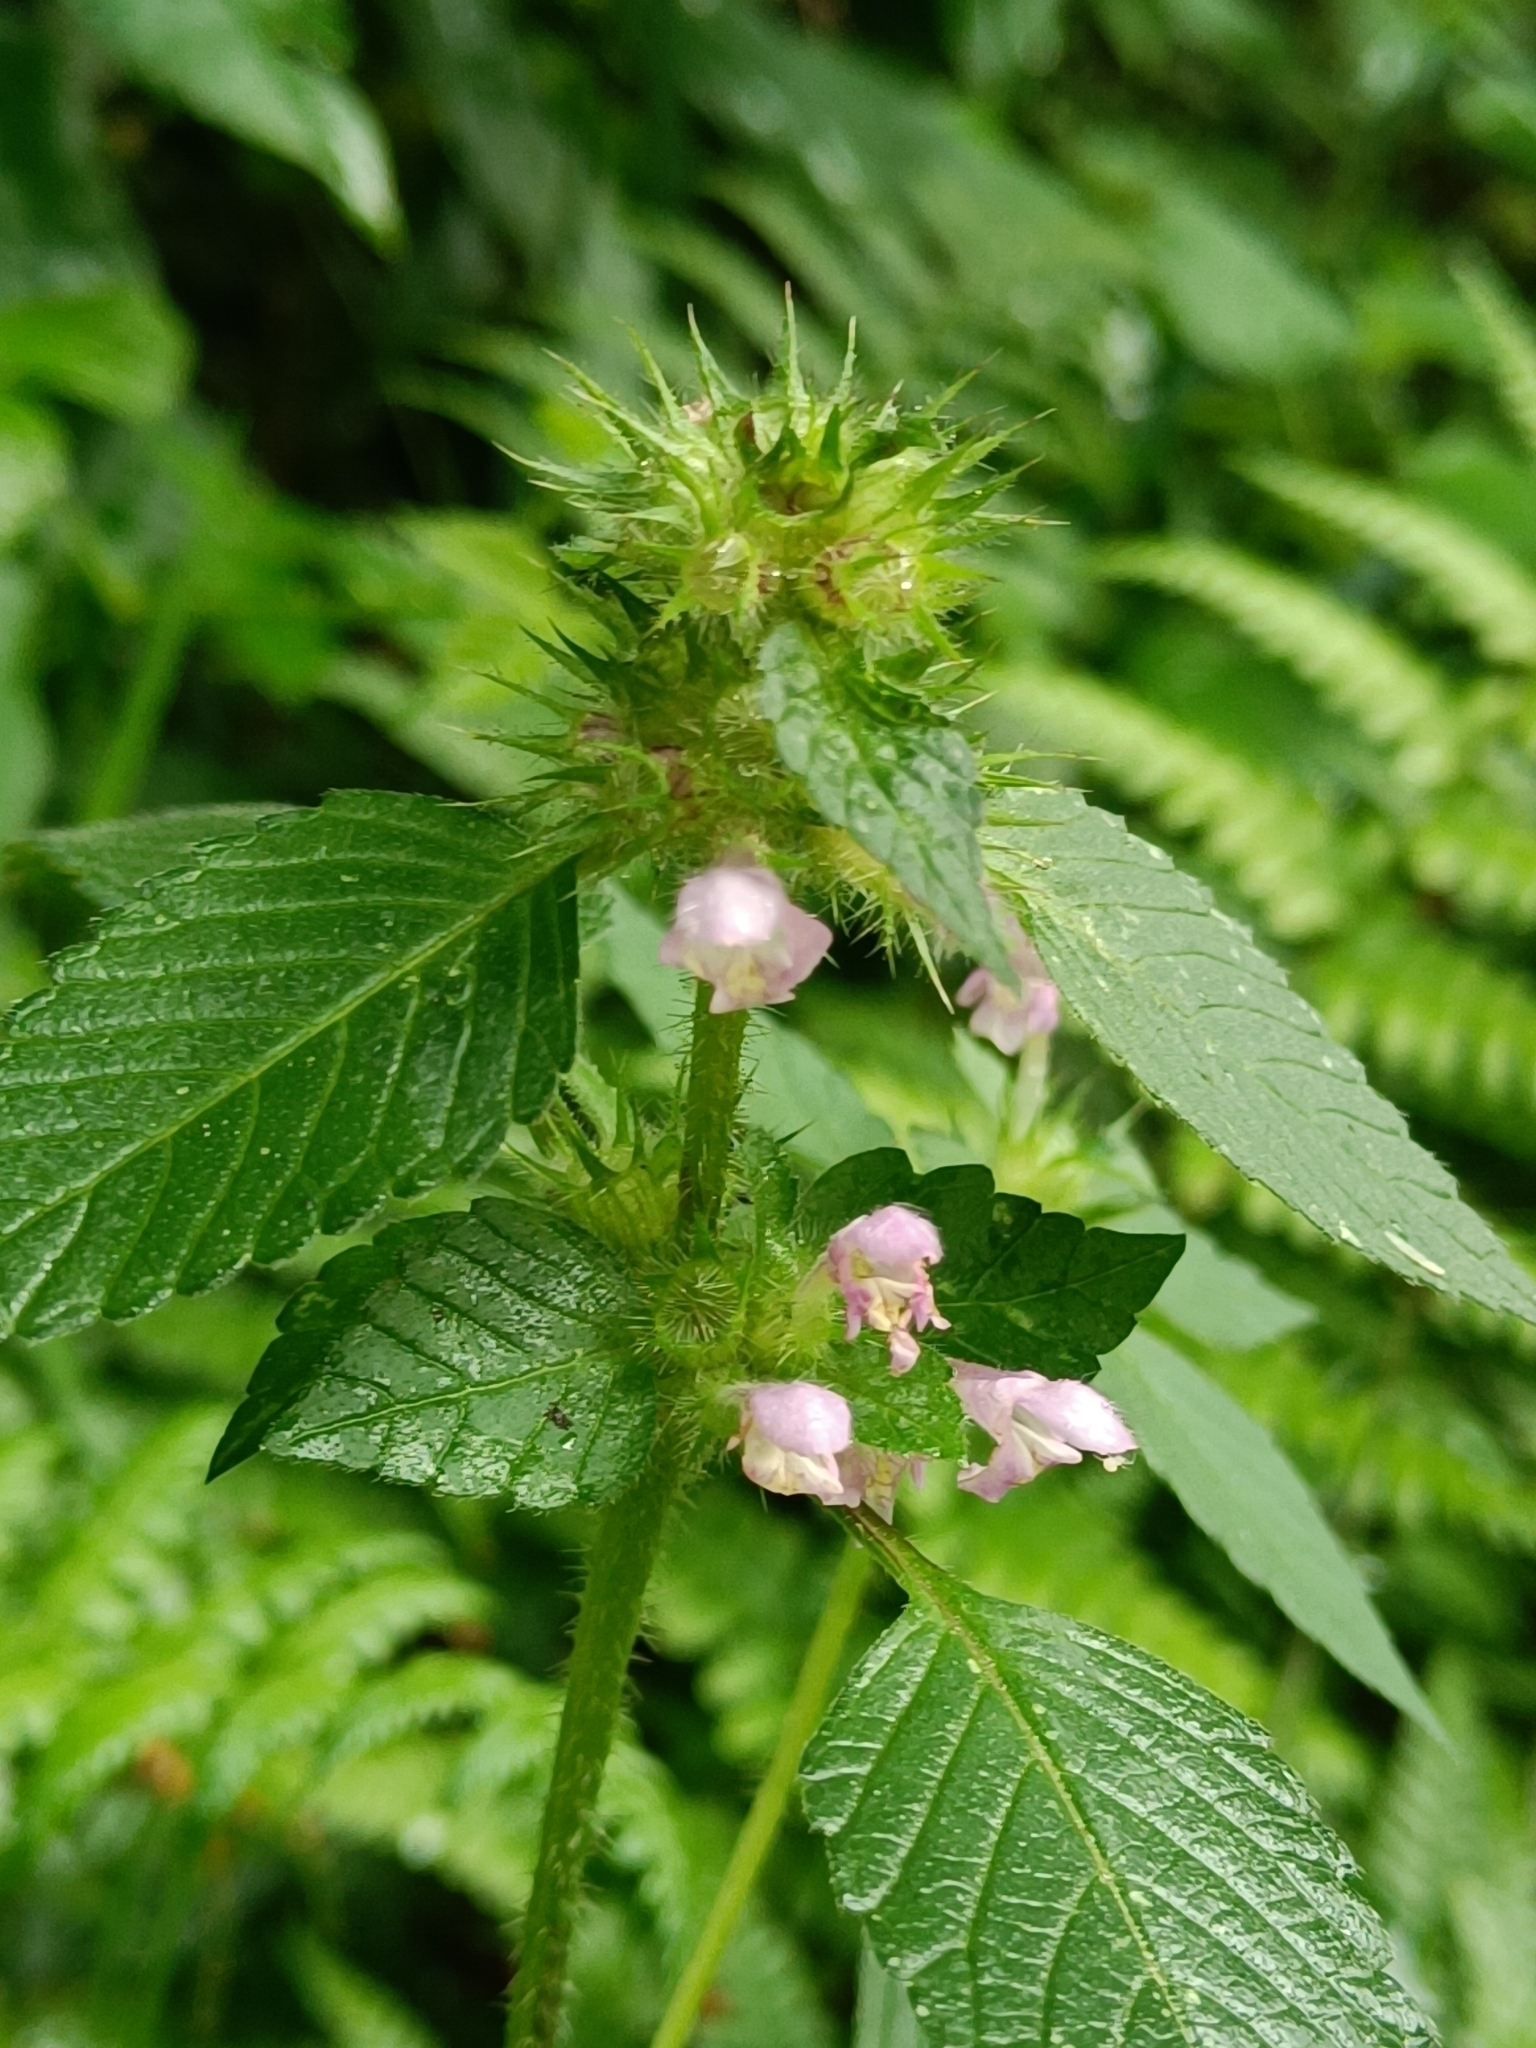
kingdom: Plantae
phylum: Tracheophyta
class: Magnoliopsida
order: Lamiales
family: Lamiaceae
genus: Galeopsis
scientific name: Galeopsis tetrahit
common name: Common hemp-nettle
